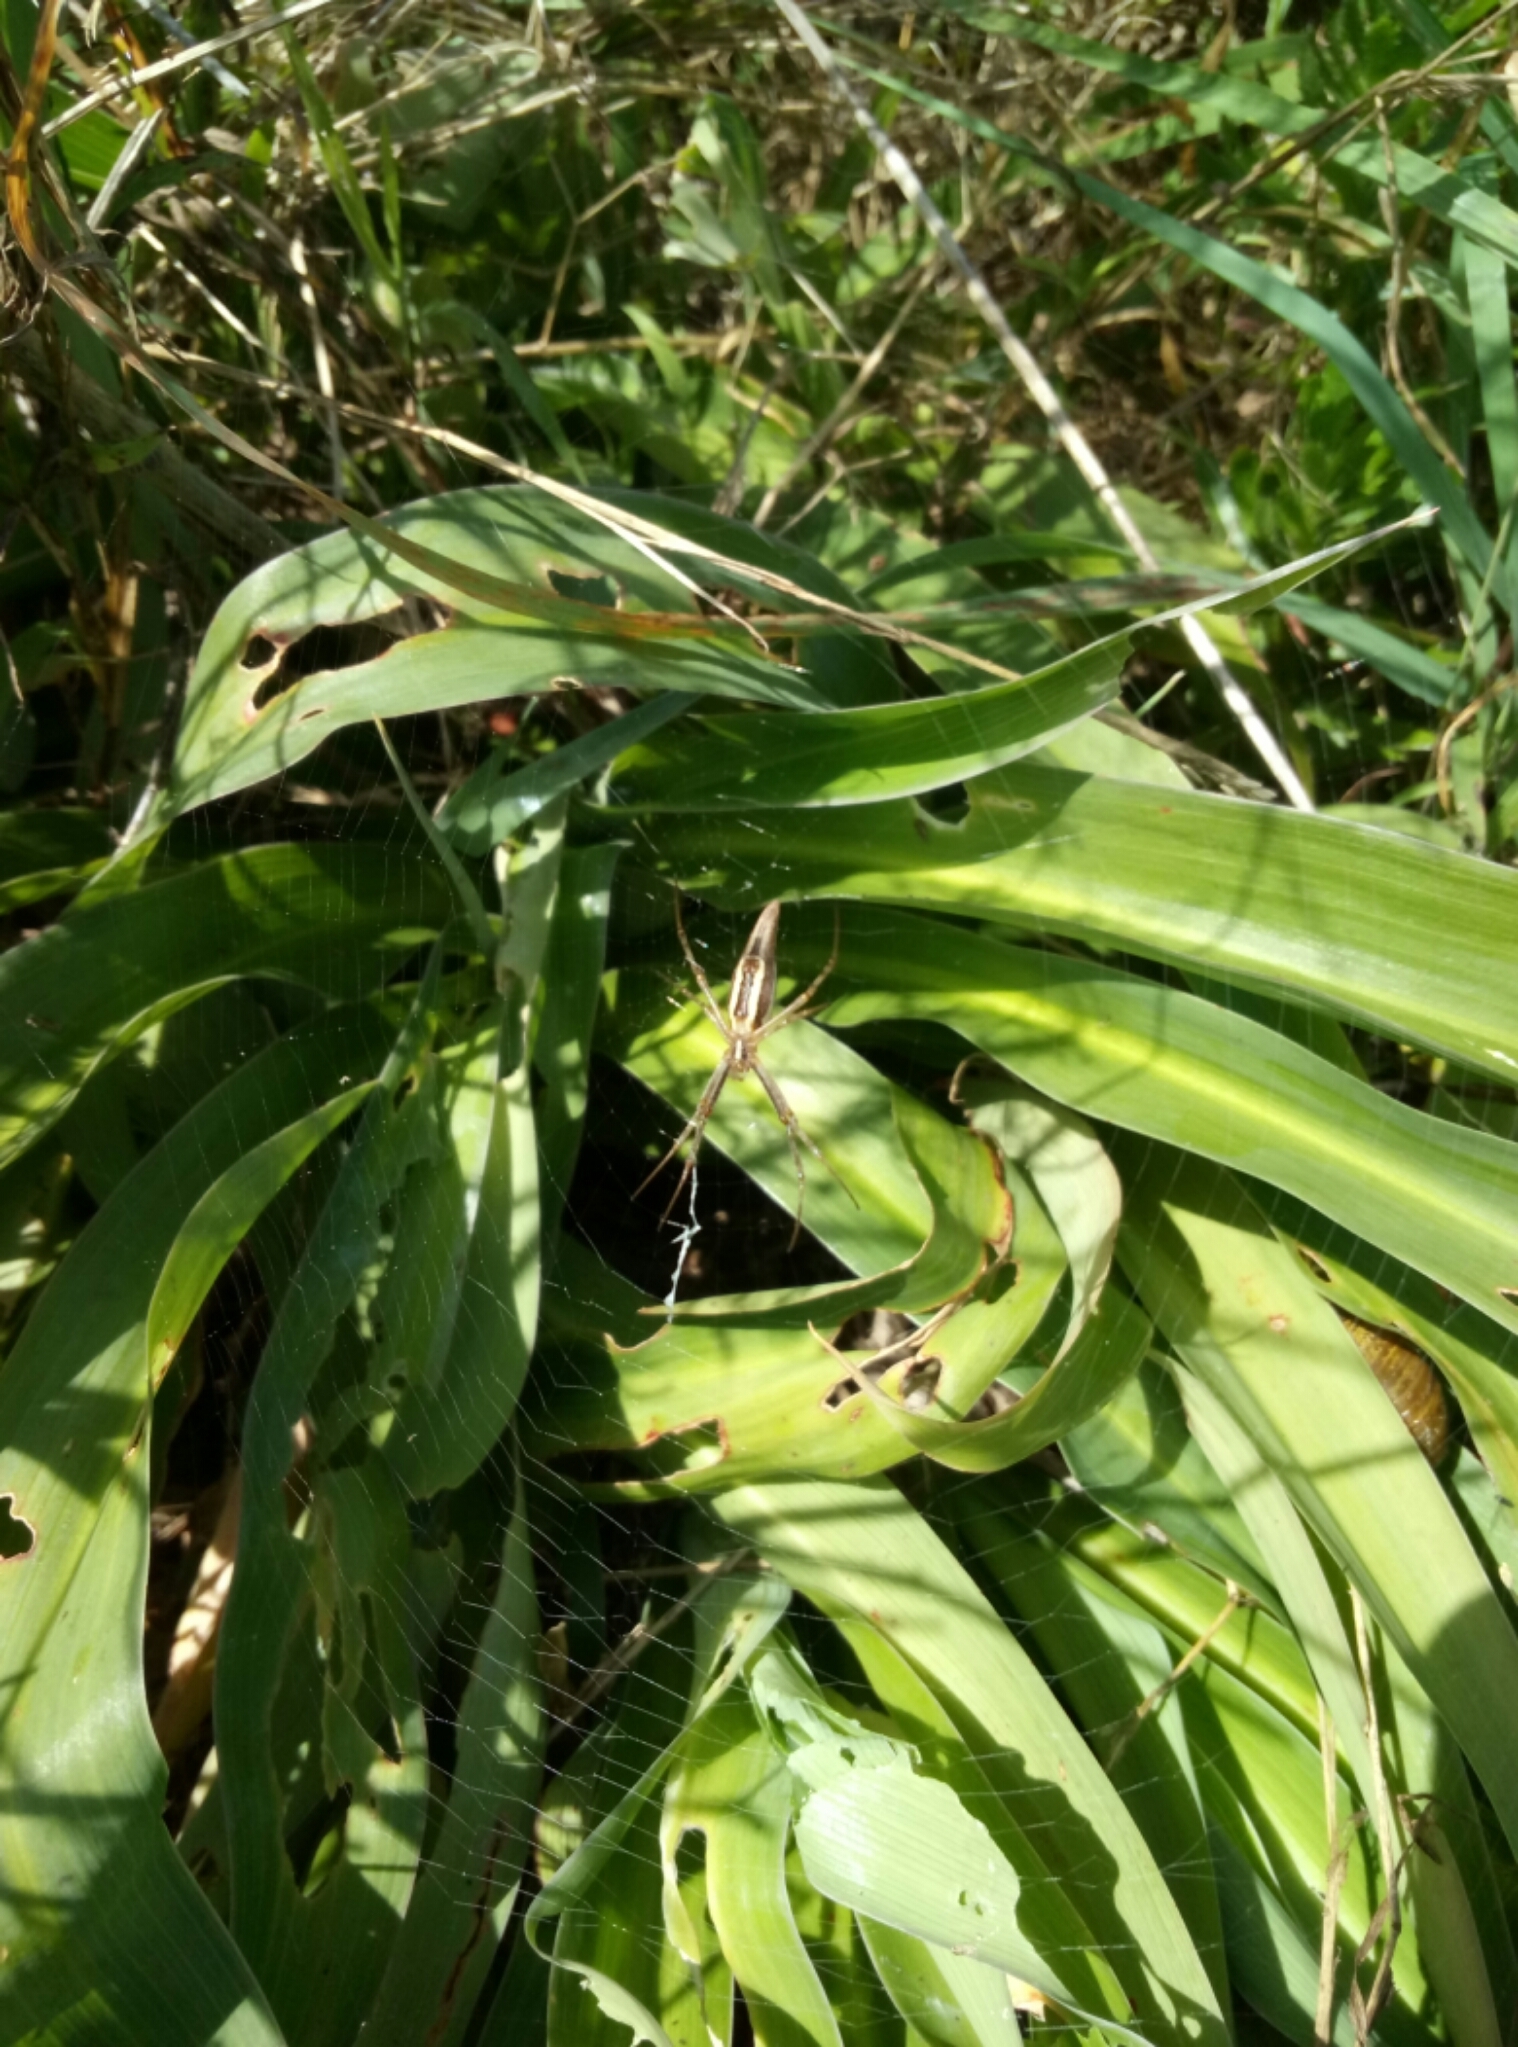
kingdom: Animalia
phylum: Arthropoda
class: Arachnida
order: Araneae
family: Araneidae
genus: Argiope
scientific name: Argiope protensa
